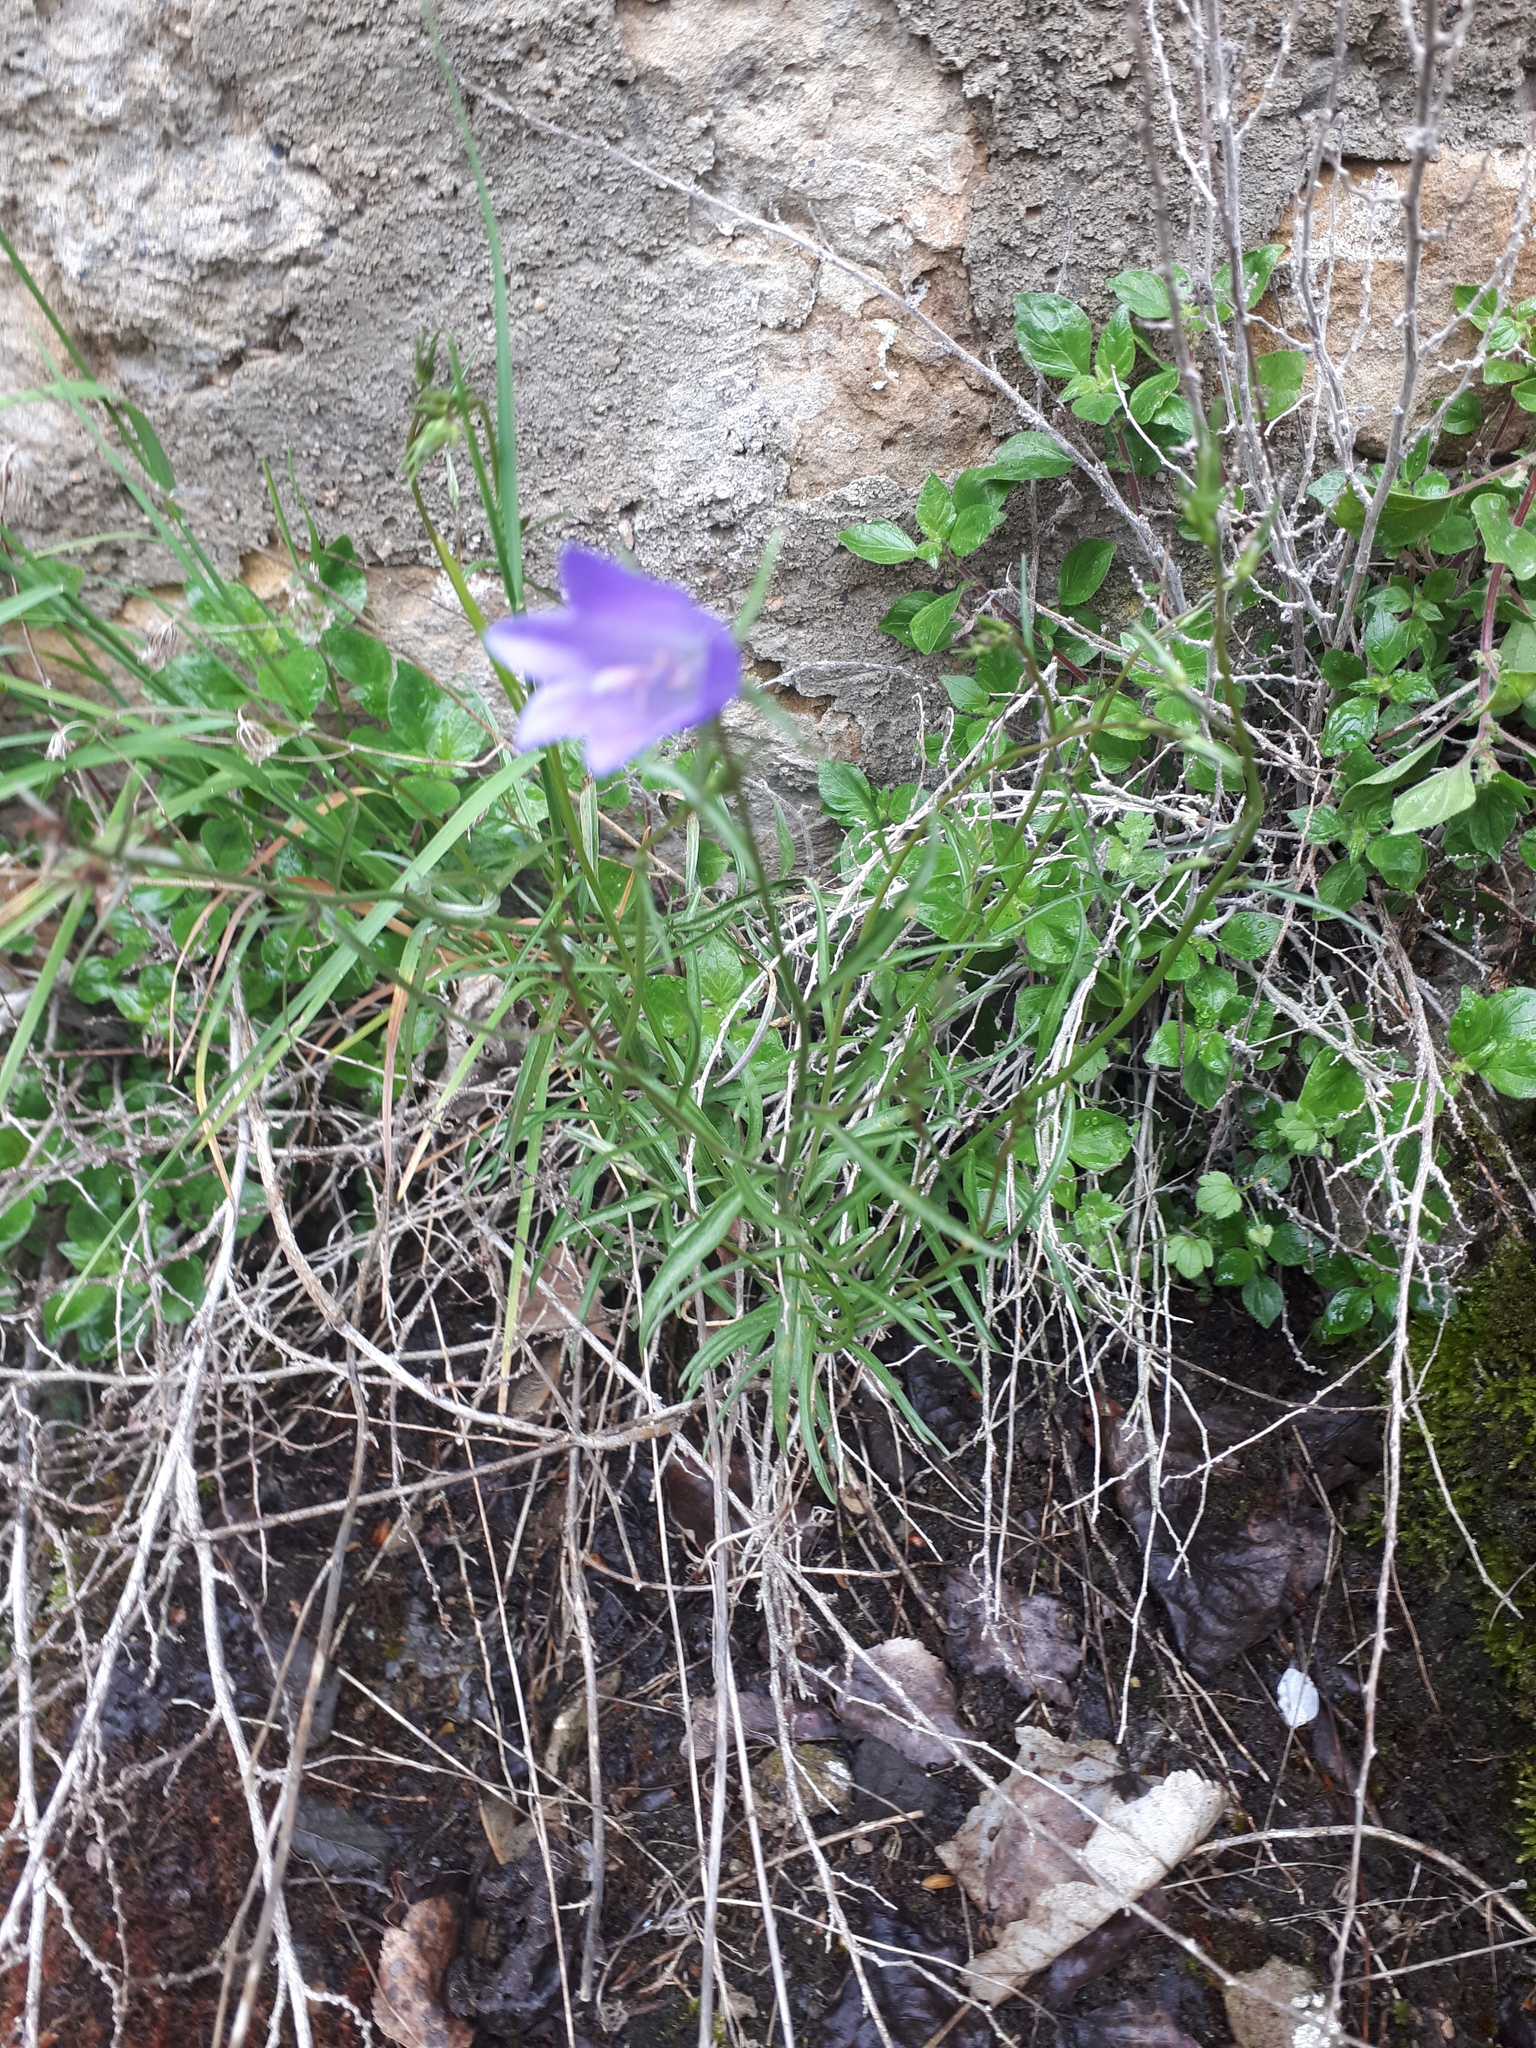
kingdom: Plantae
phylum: Tracheophyta
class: Magnoliopsida
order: Asterales
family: Campanulaceae
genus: Campanula
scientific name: Campanula rotundifolia
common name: Harebell
